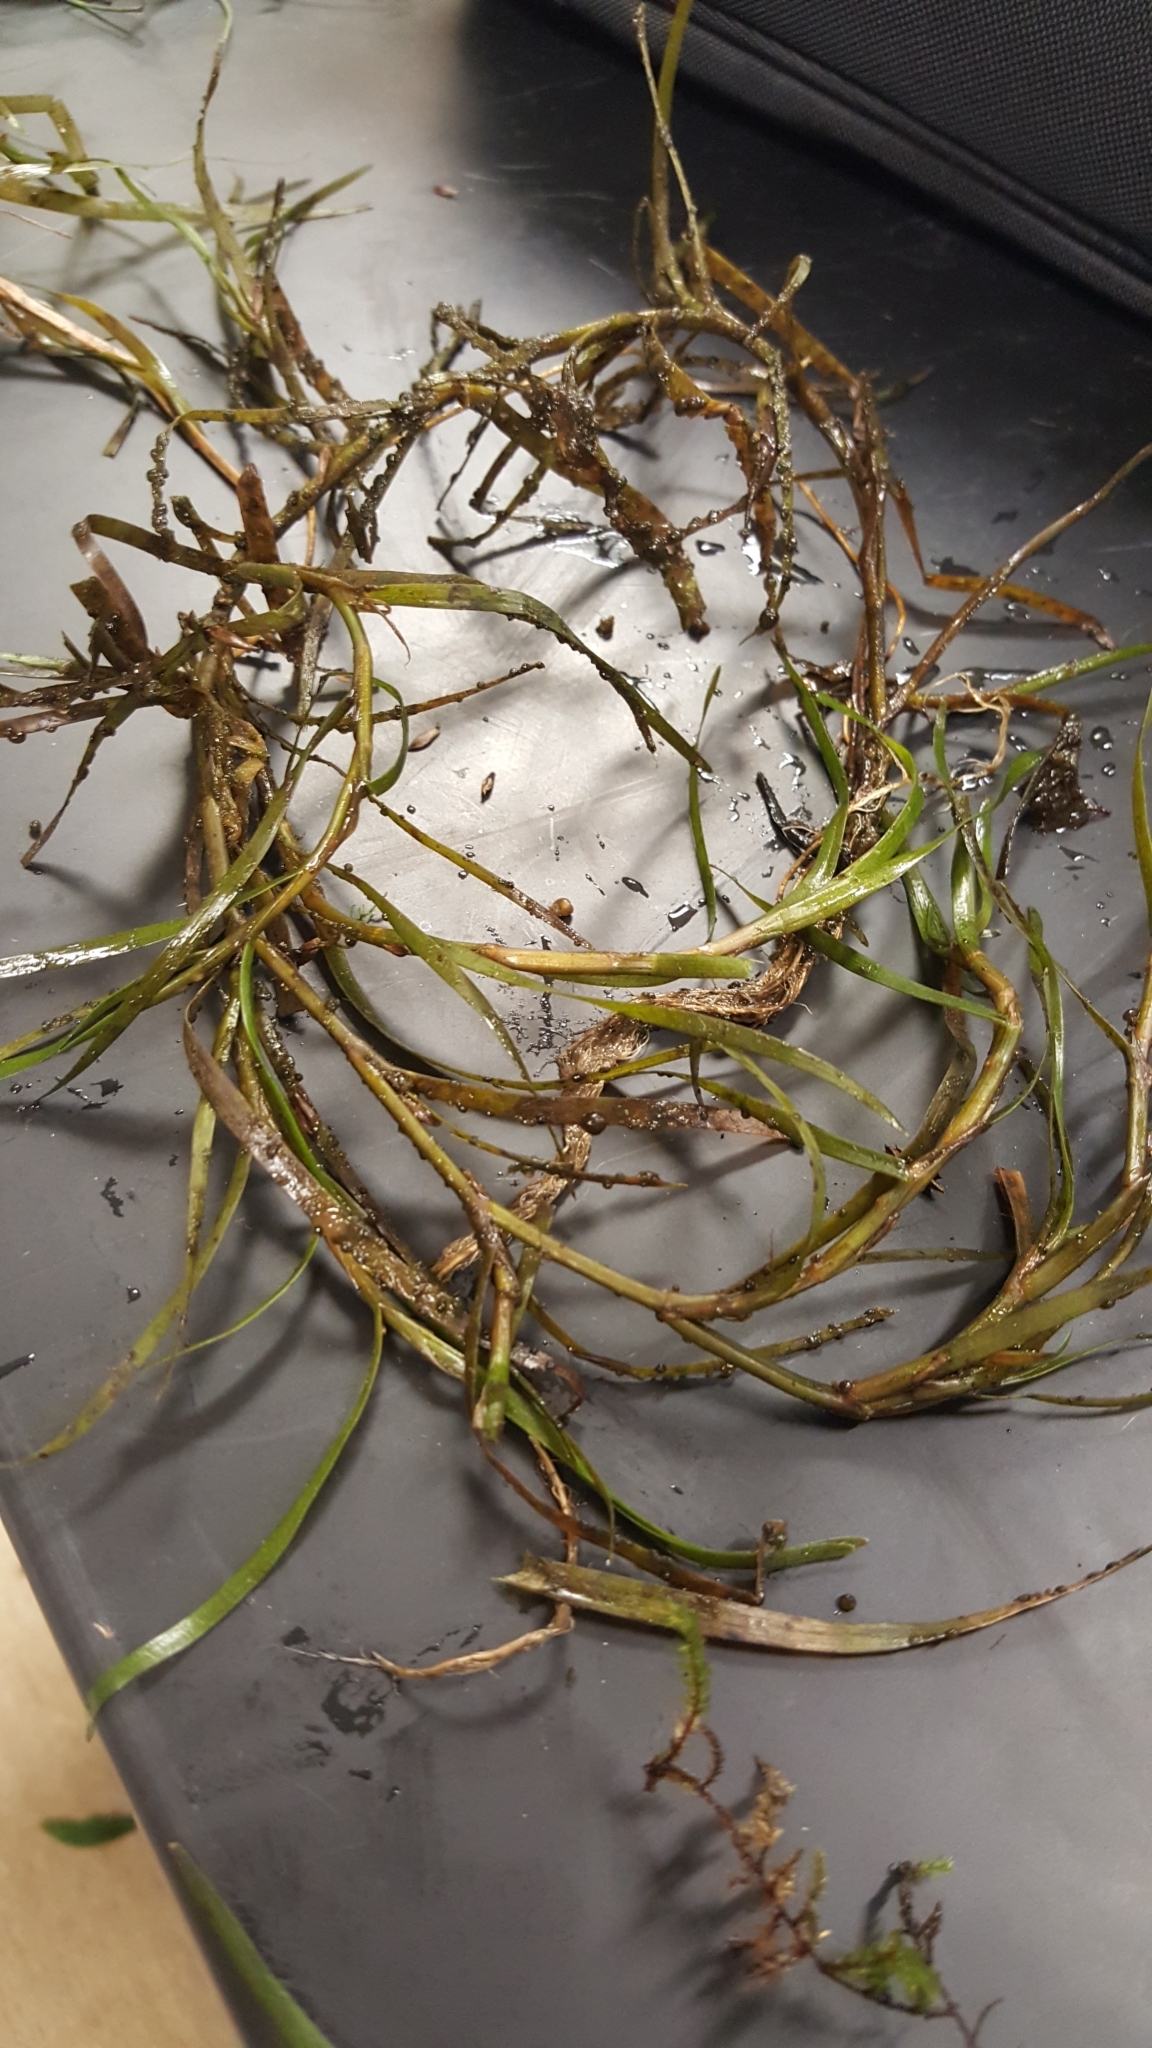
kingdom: Plantae
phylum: Tracheophyta
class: Liliopsida
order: Commelinales
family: Pontederiaceae
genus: Heteranthera
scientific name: Heteranthera dubia
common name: Grass-leaved mud plantain
